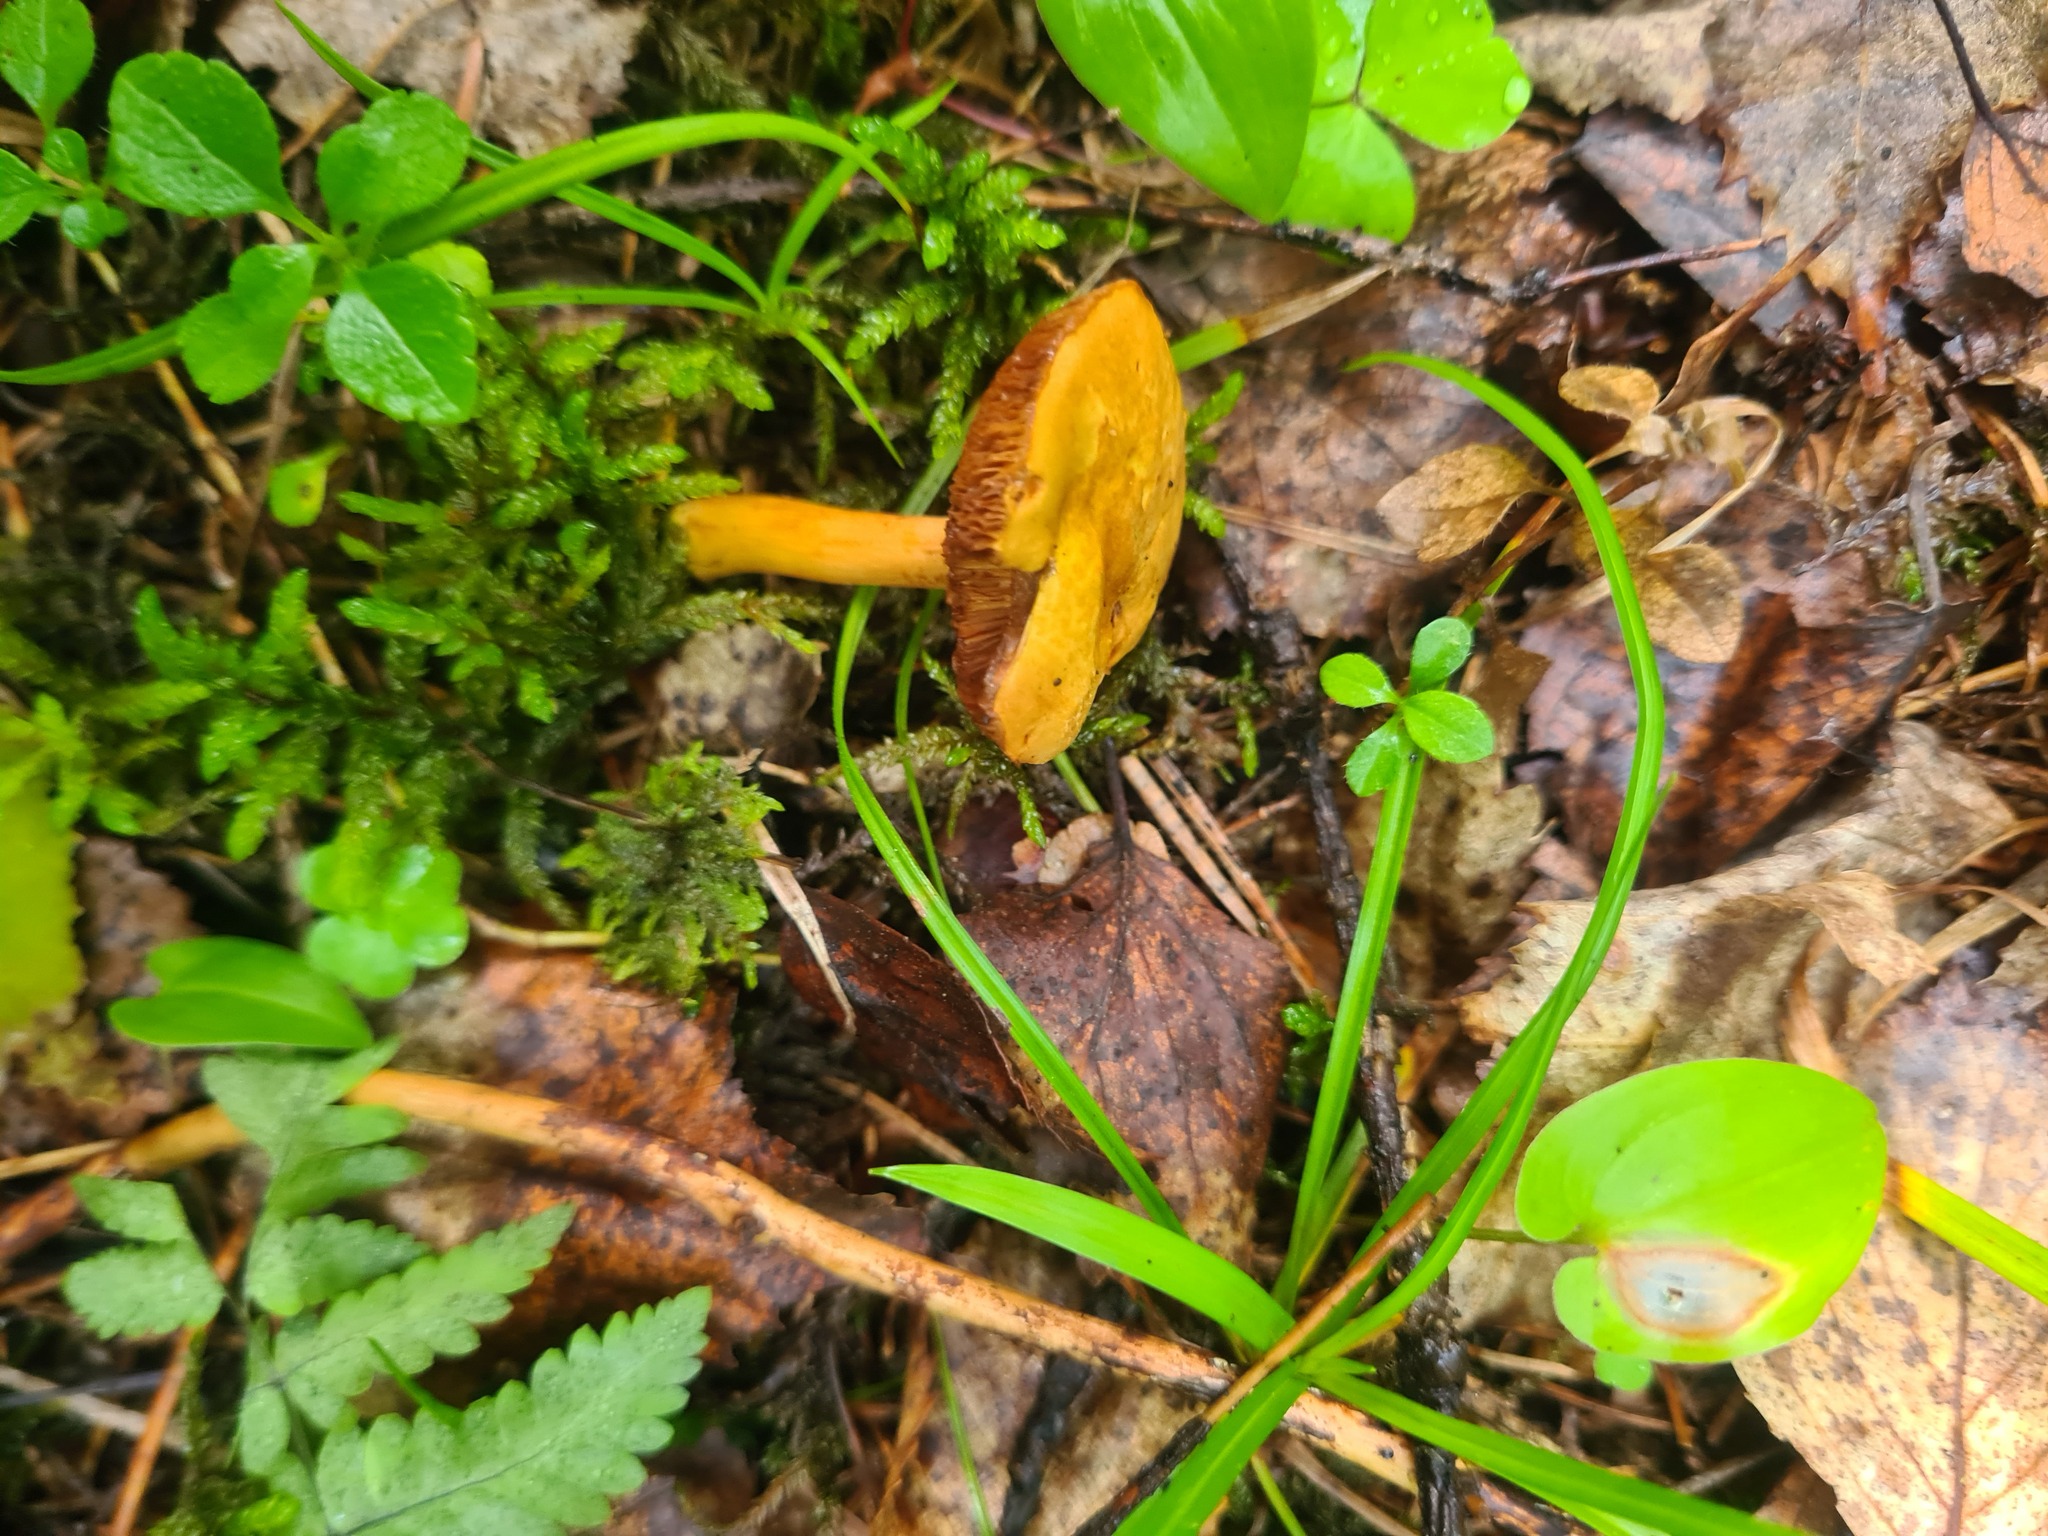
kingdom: Fungi
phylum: Basidiomycota
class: Agaricomycetes
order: Boletales
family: Boletaceae
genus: Chalciporus
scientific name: Chalciporus piperatus
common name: Peppery bolete
